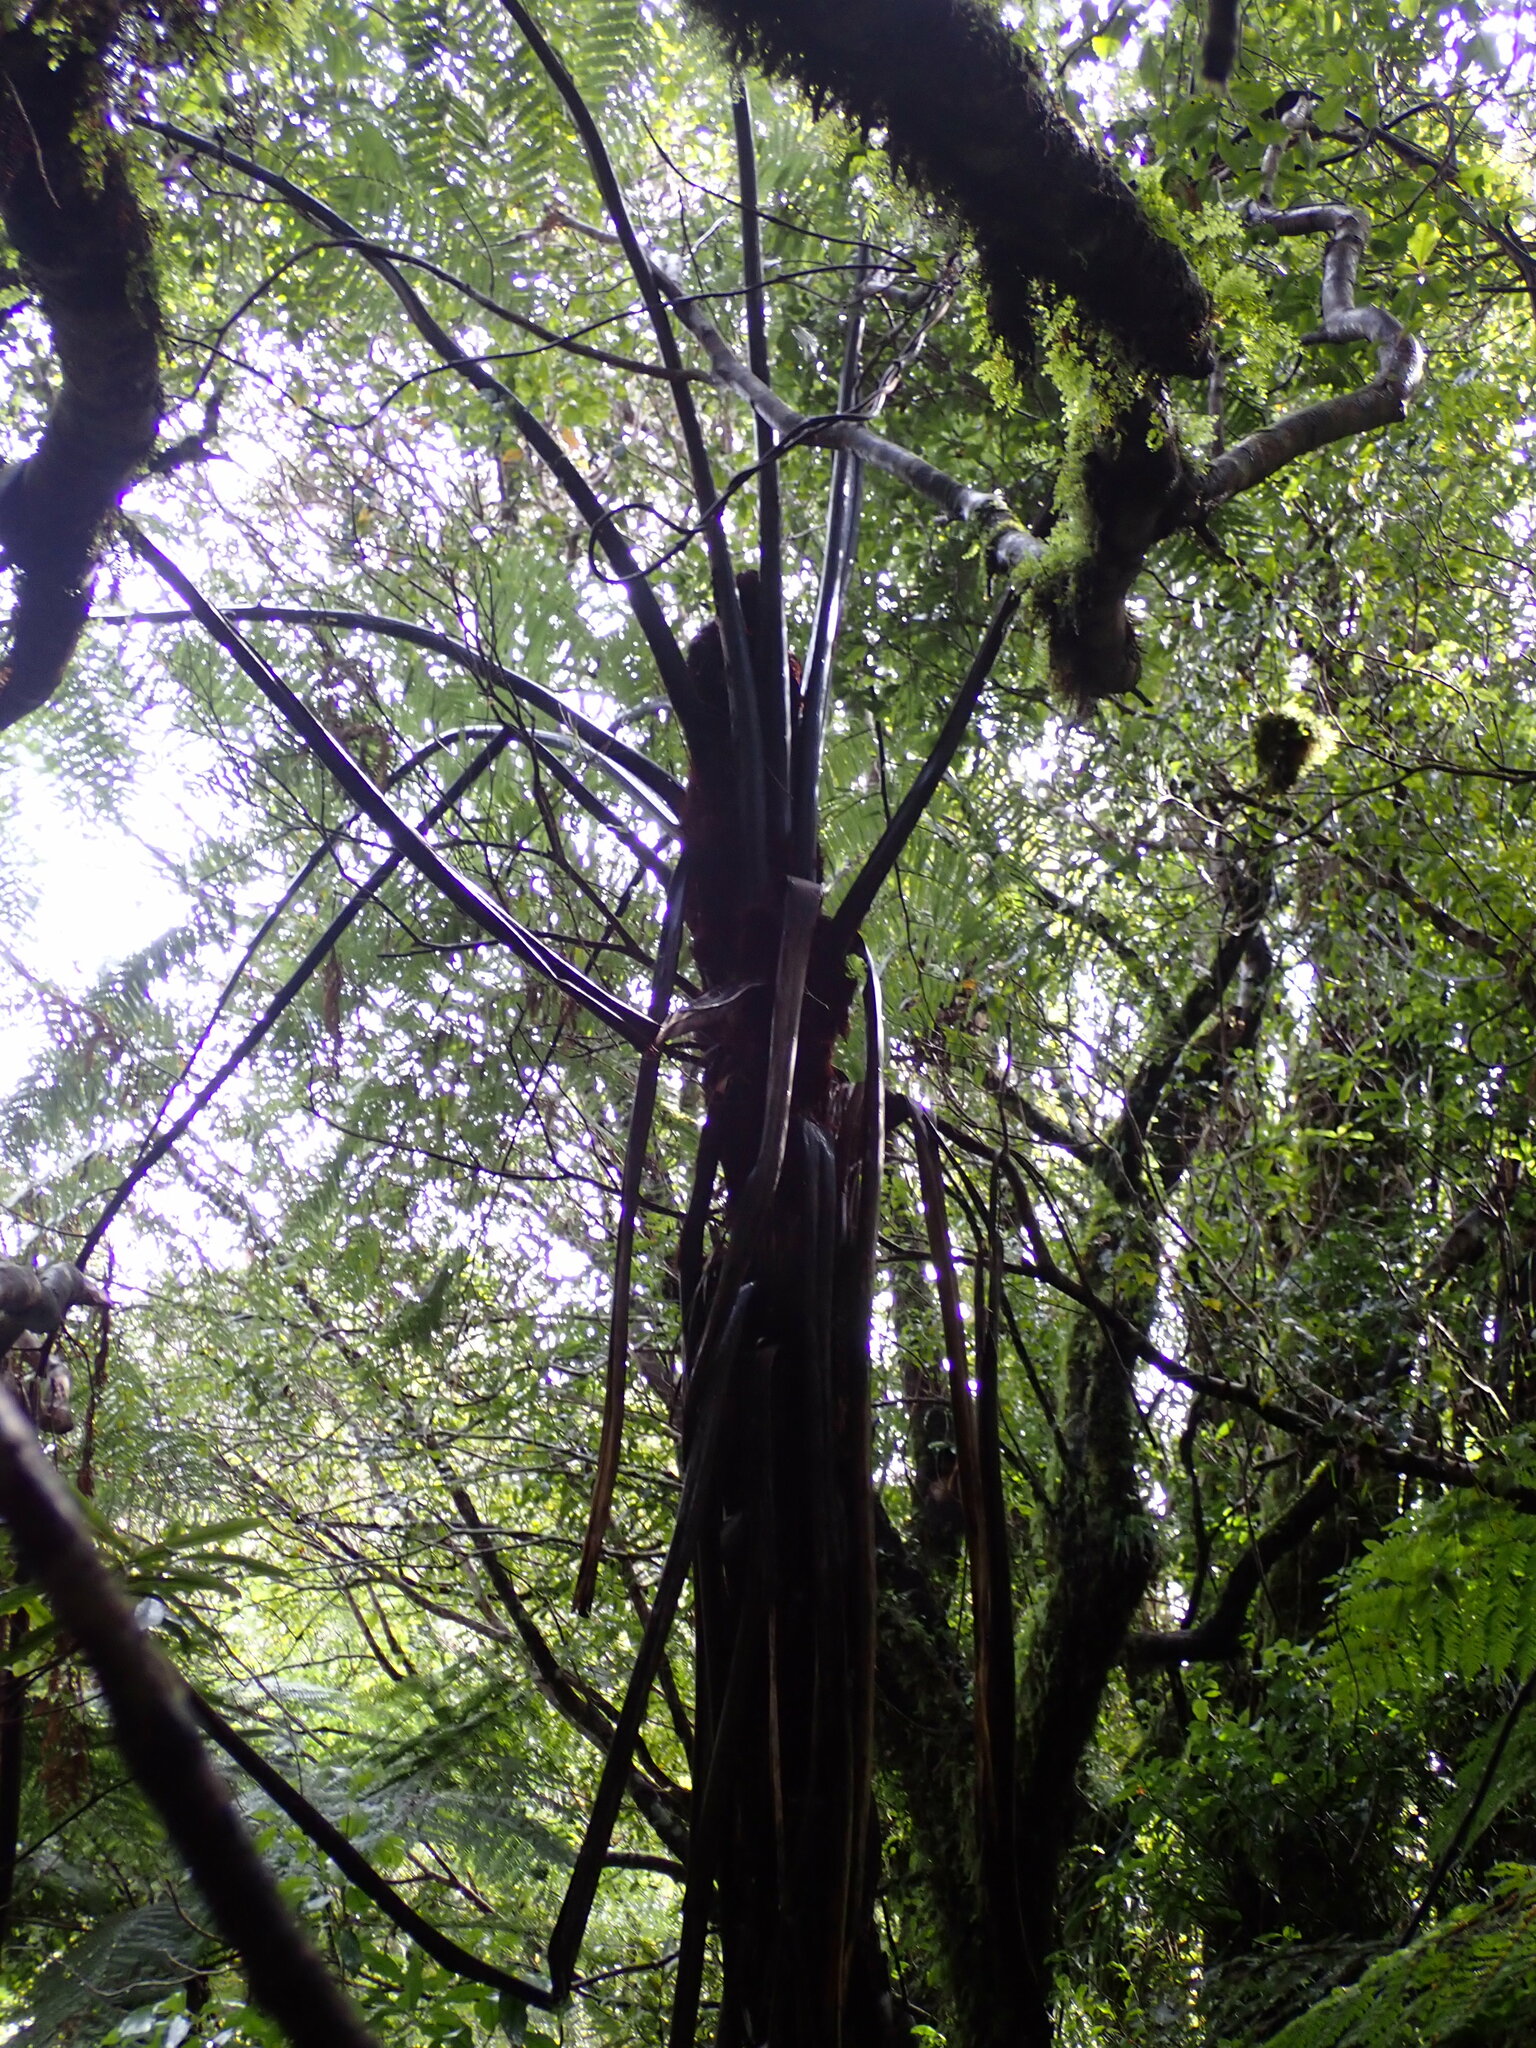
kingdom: Plantae
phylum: Tracheophyta
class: Polypodiopsida
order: Cyatheales
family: Cyatheaceae
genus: Sphaeropteris
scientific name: Sphaeropteris medullaris
